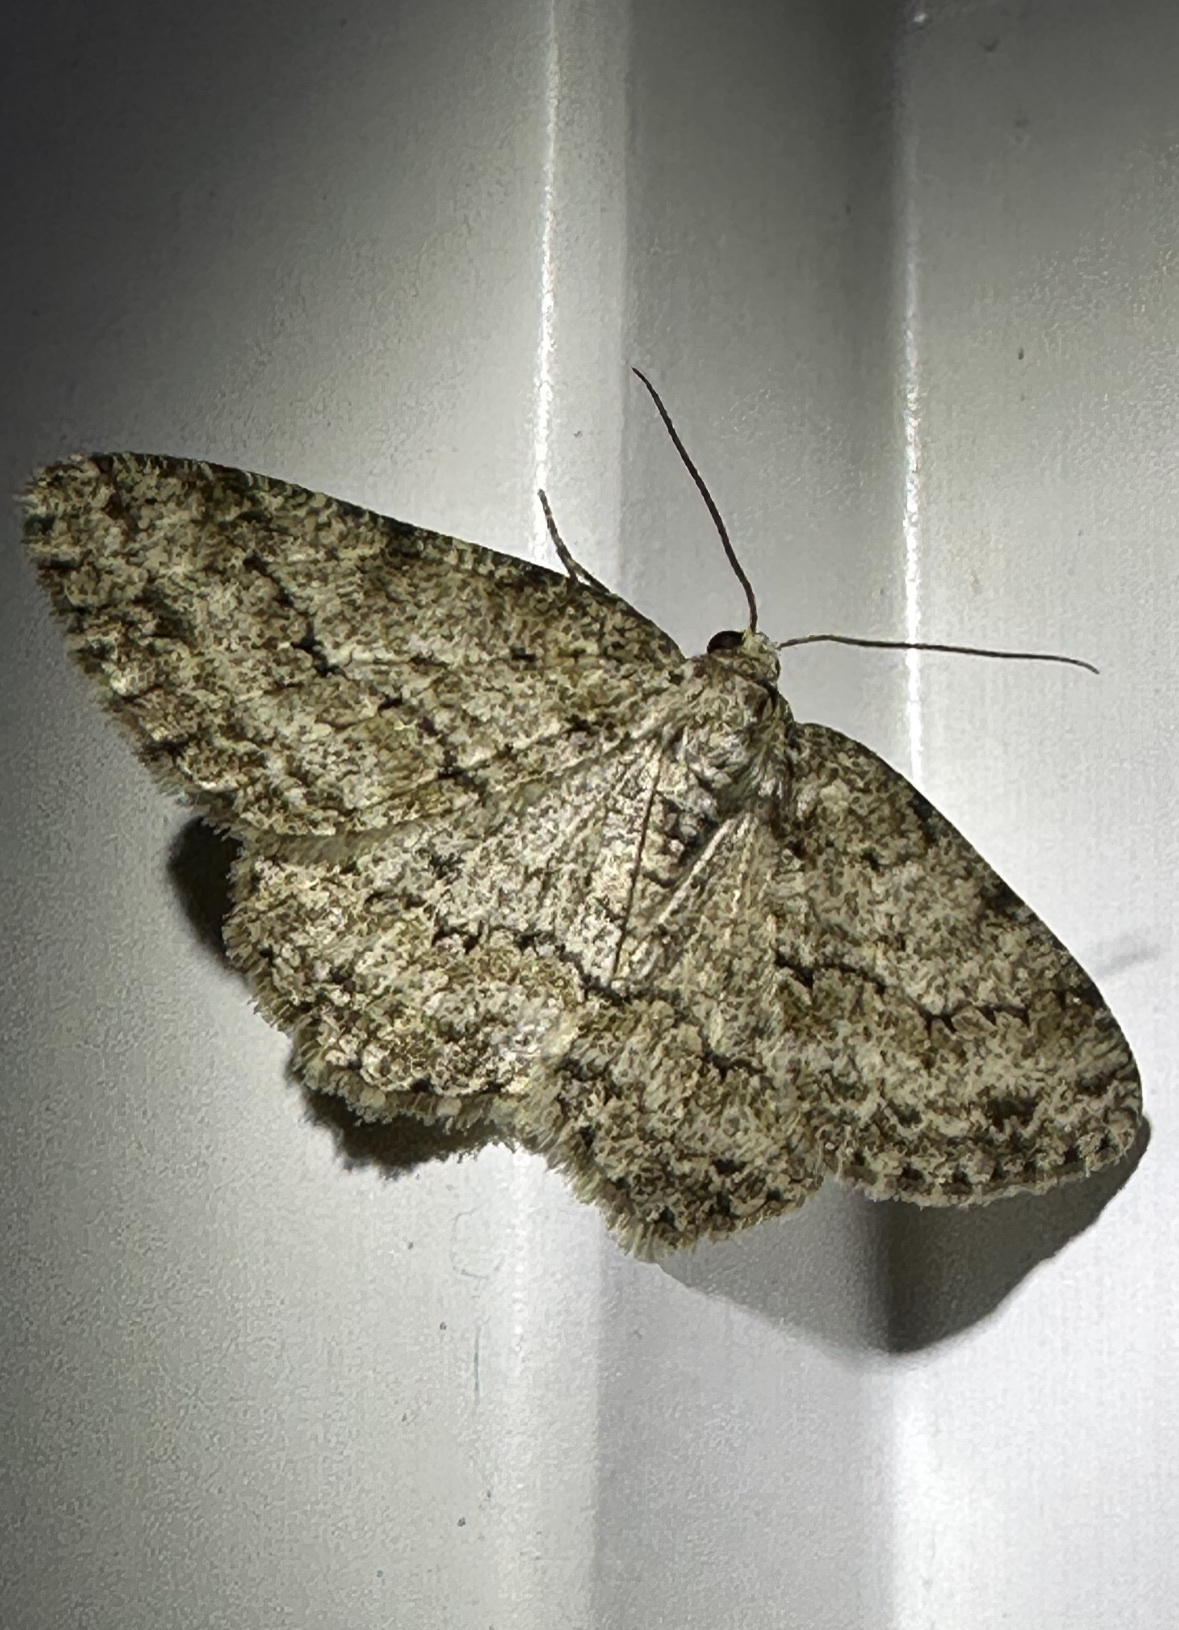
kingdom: Animalia
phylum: Arthropoda
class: Insecta
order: Lepidoptera
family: Geometridae
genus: Ectropis
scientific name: Ectropis crepuscularia
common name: Engrailed
